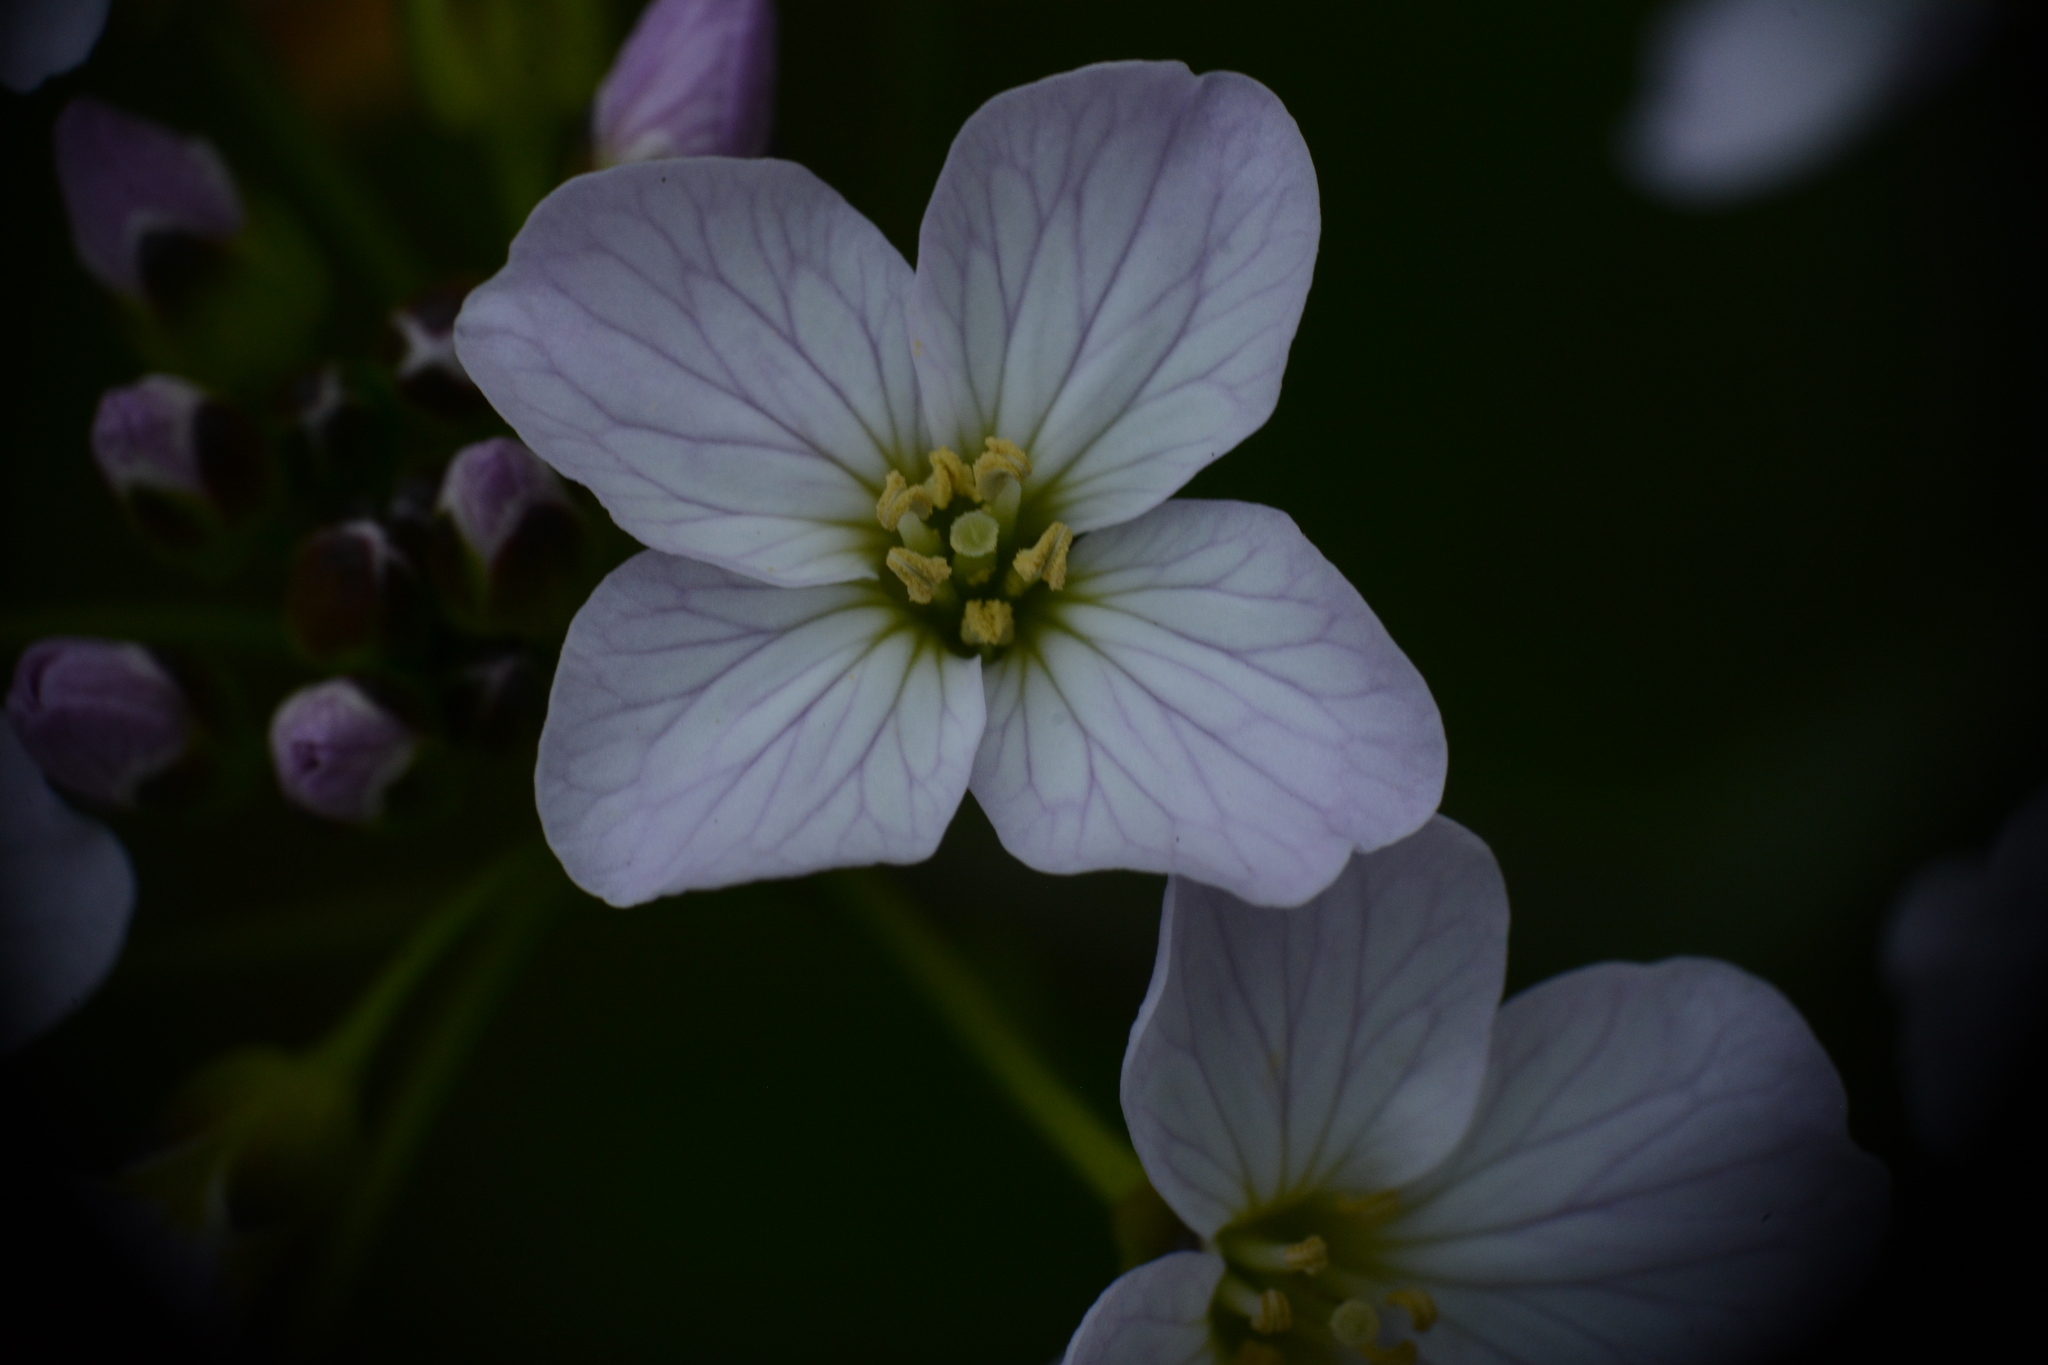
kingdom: Plantae
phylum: Tracheophyta
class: Magnoliopsida
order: Brassicales
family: Brassicaceae
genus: Cardamine
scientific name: Cardamine pratensis
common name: Cuckoo flower
